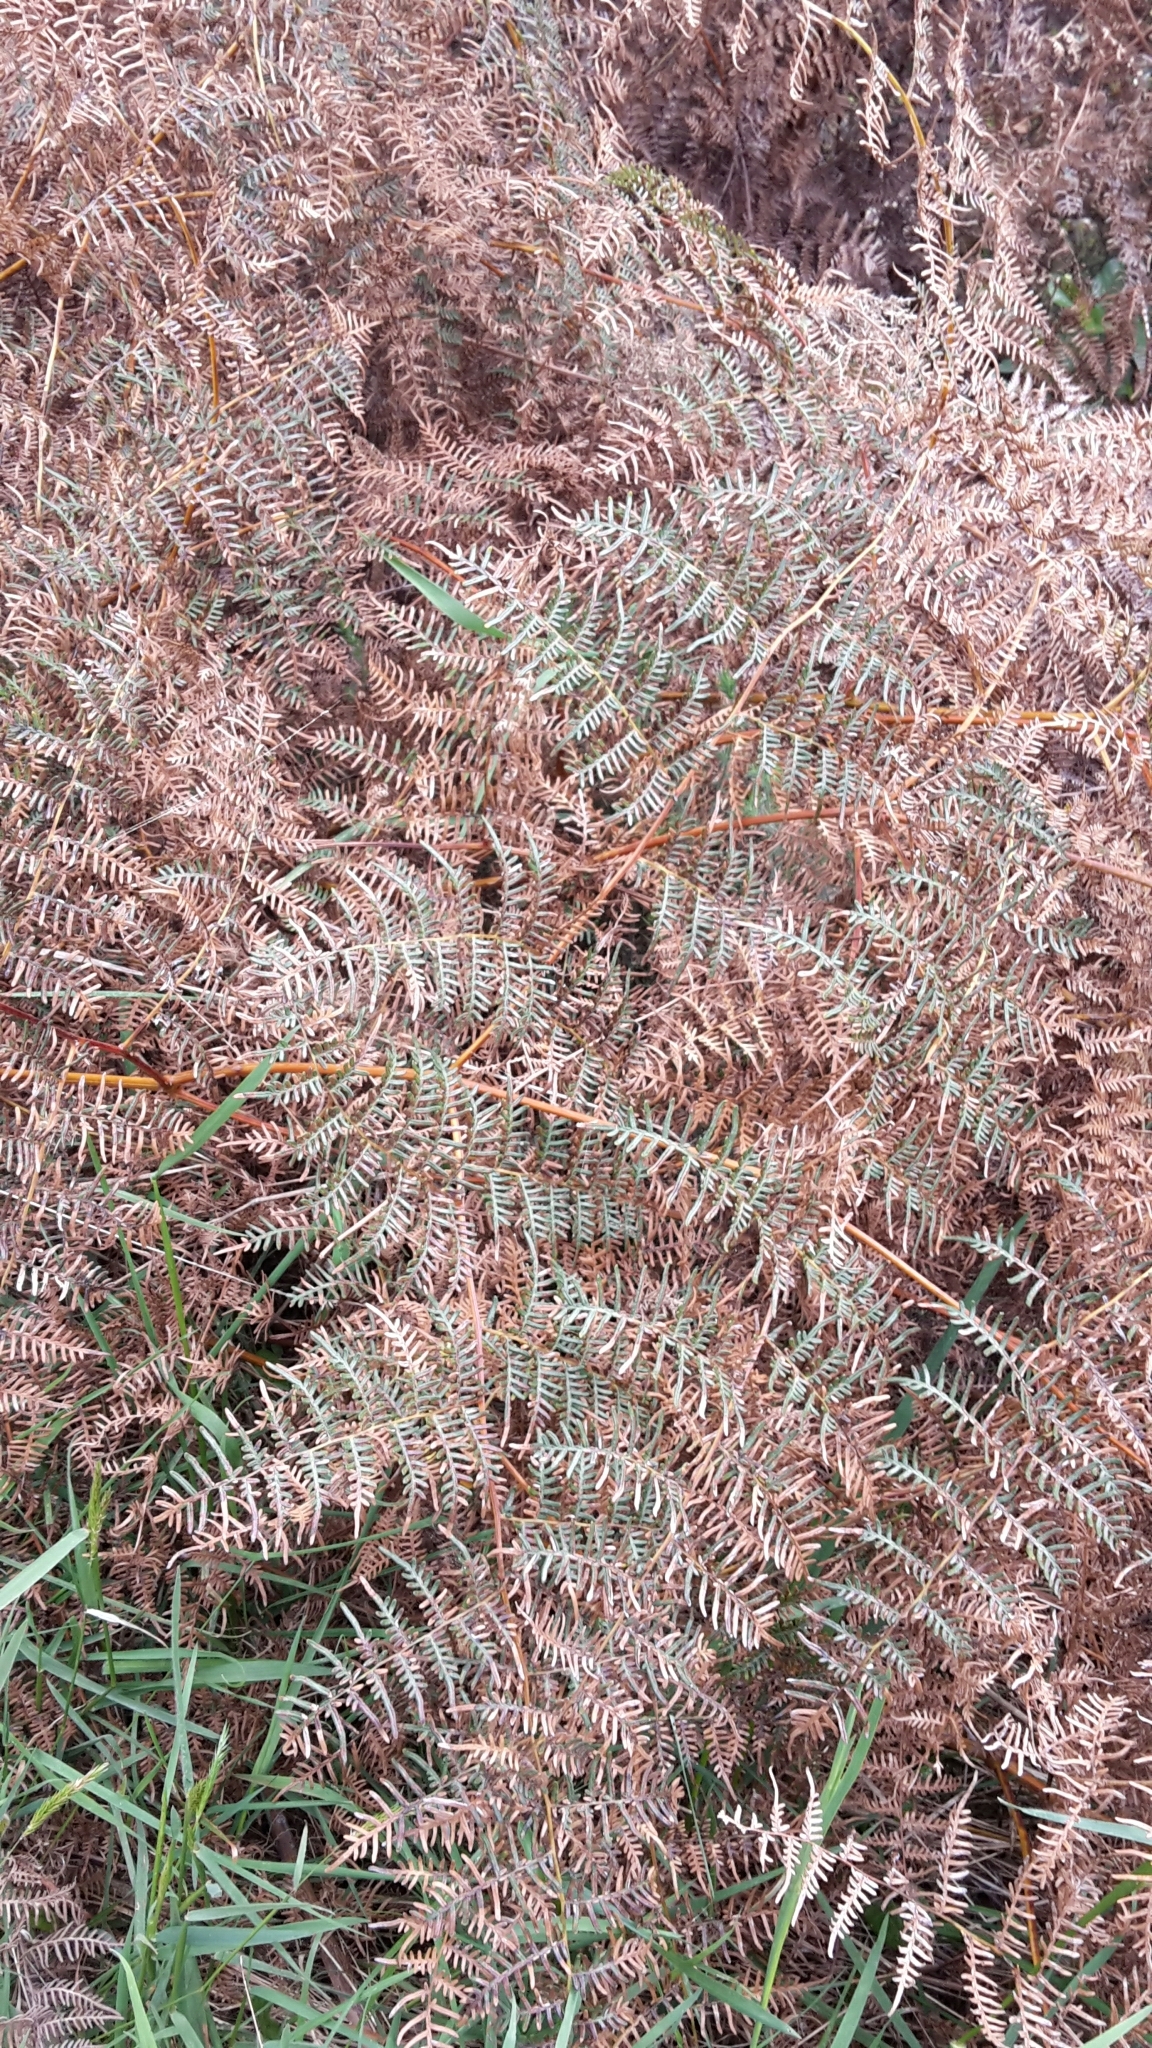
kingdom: Plantae
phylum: Tracheophyta
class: Polypodiopsida
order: Polypodiales
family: Dennstaedtiaceae
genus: Pteridium
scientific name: Pteridium esculentum
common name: Bracken fern
